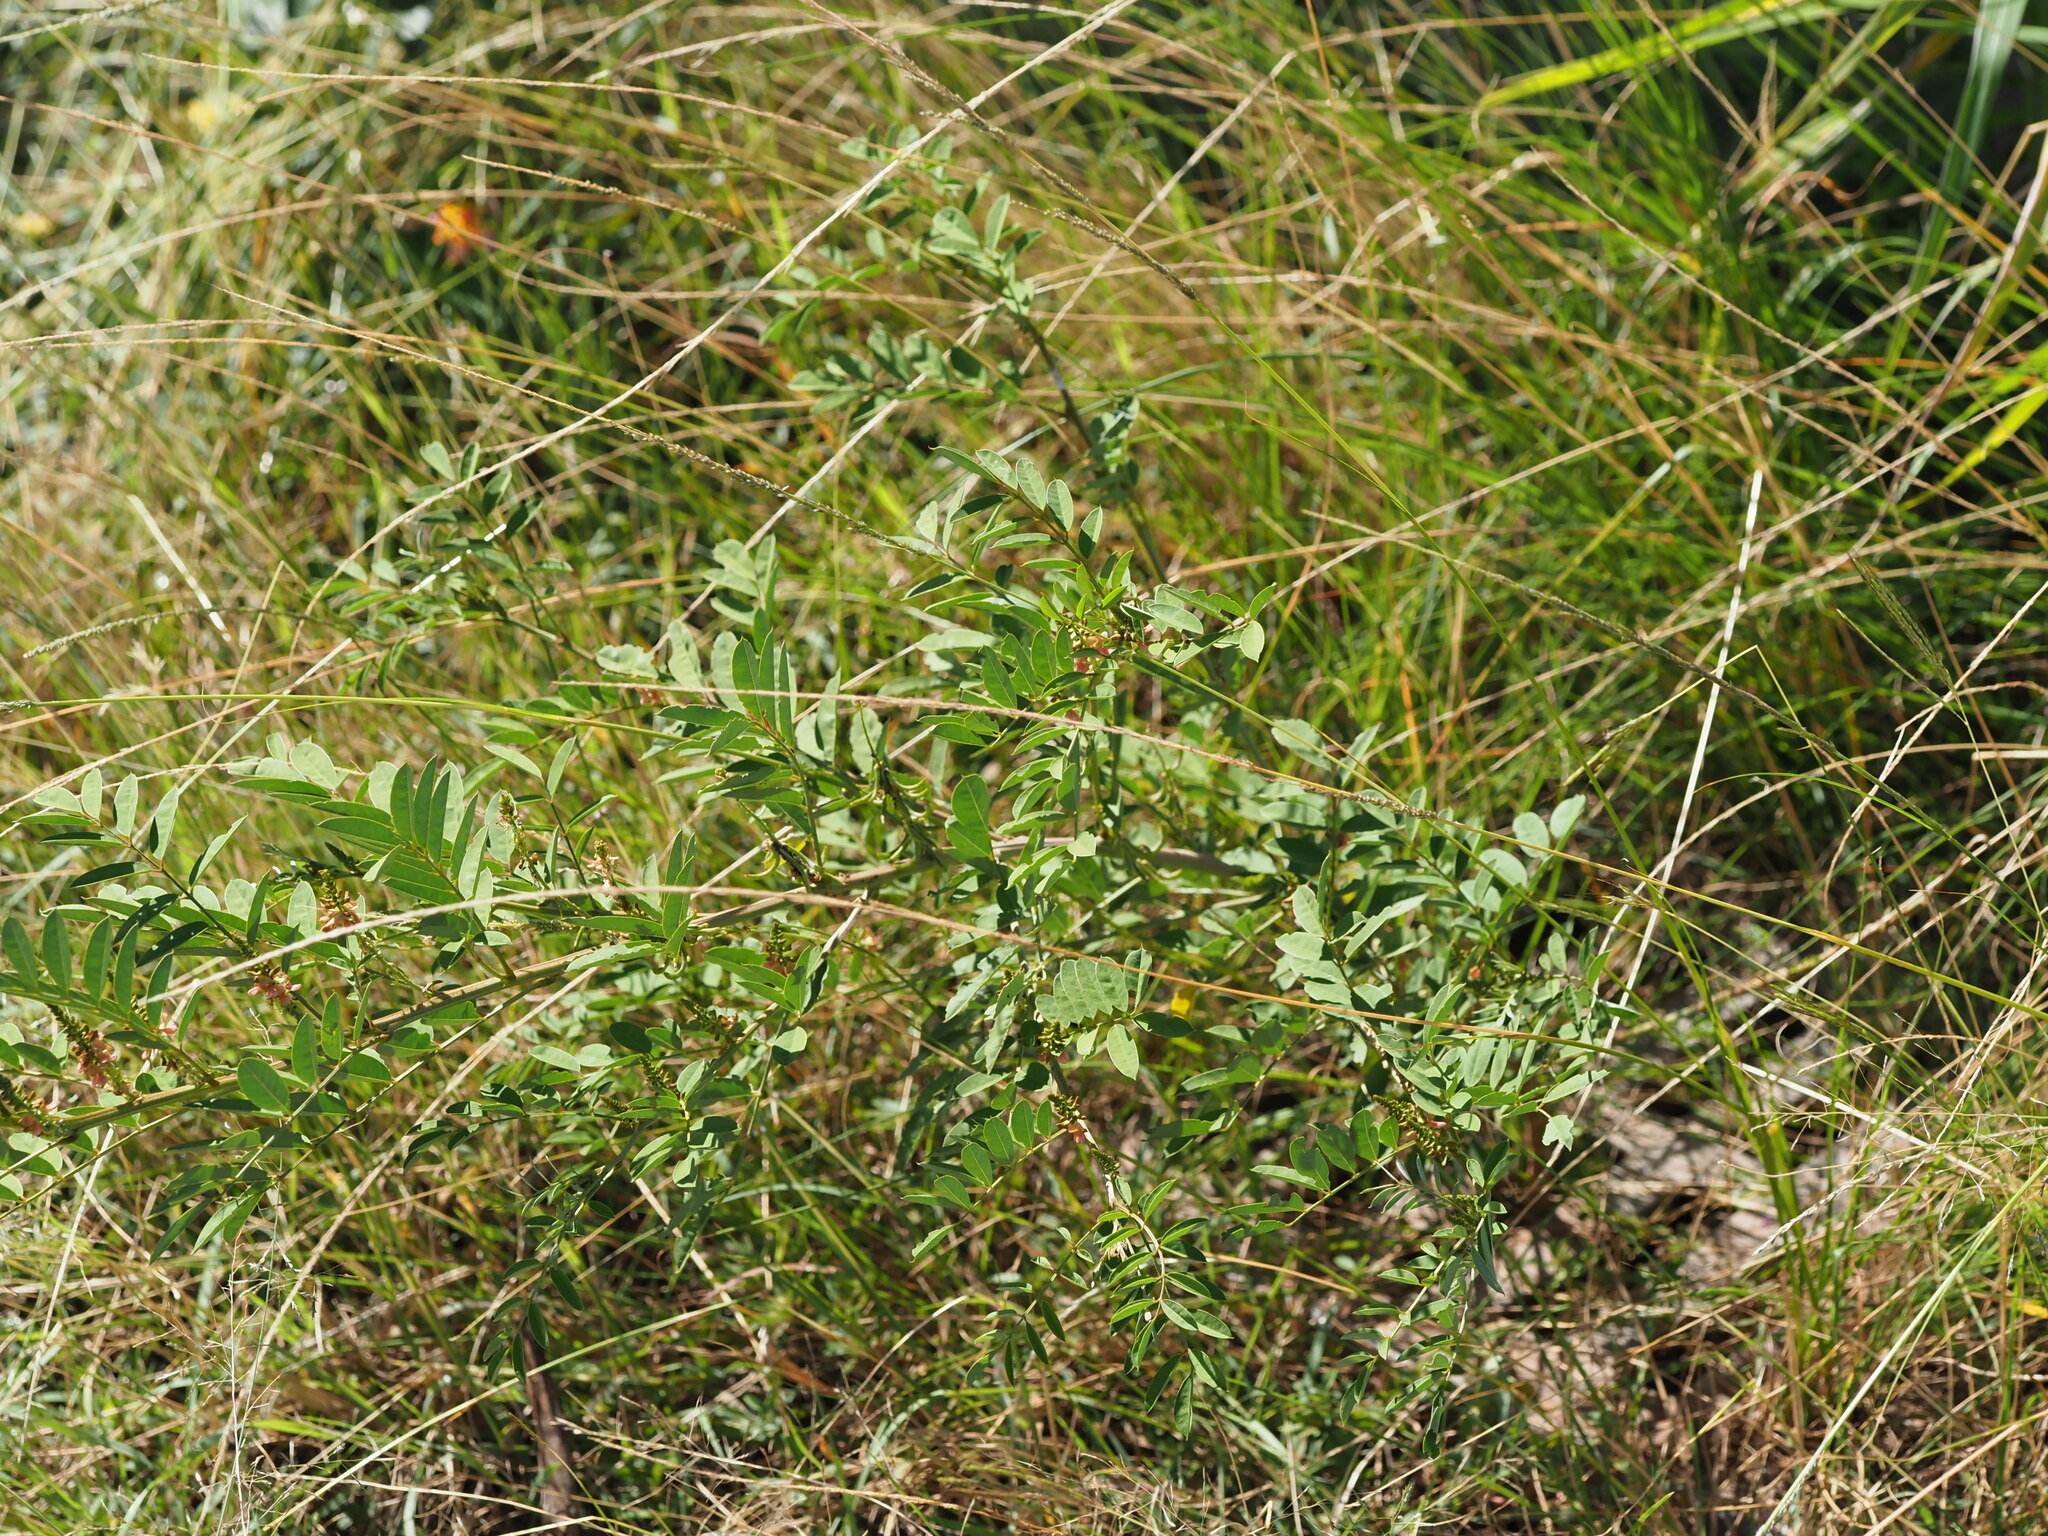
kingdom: Plantae
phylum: Tracheophyta
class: Magnoliopsida
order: Fabales
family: Fabaceae
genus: Indigofera
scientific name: Indigofera spicata
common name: Creeping indigo
